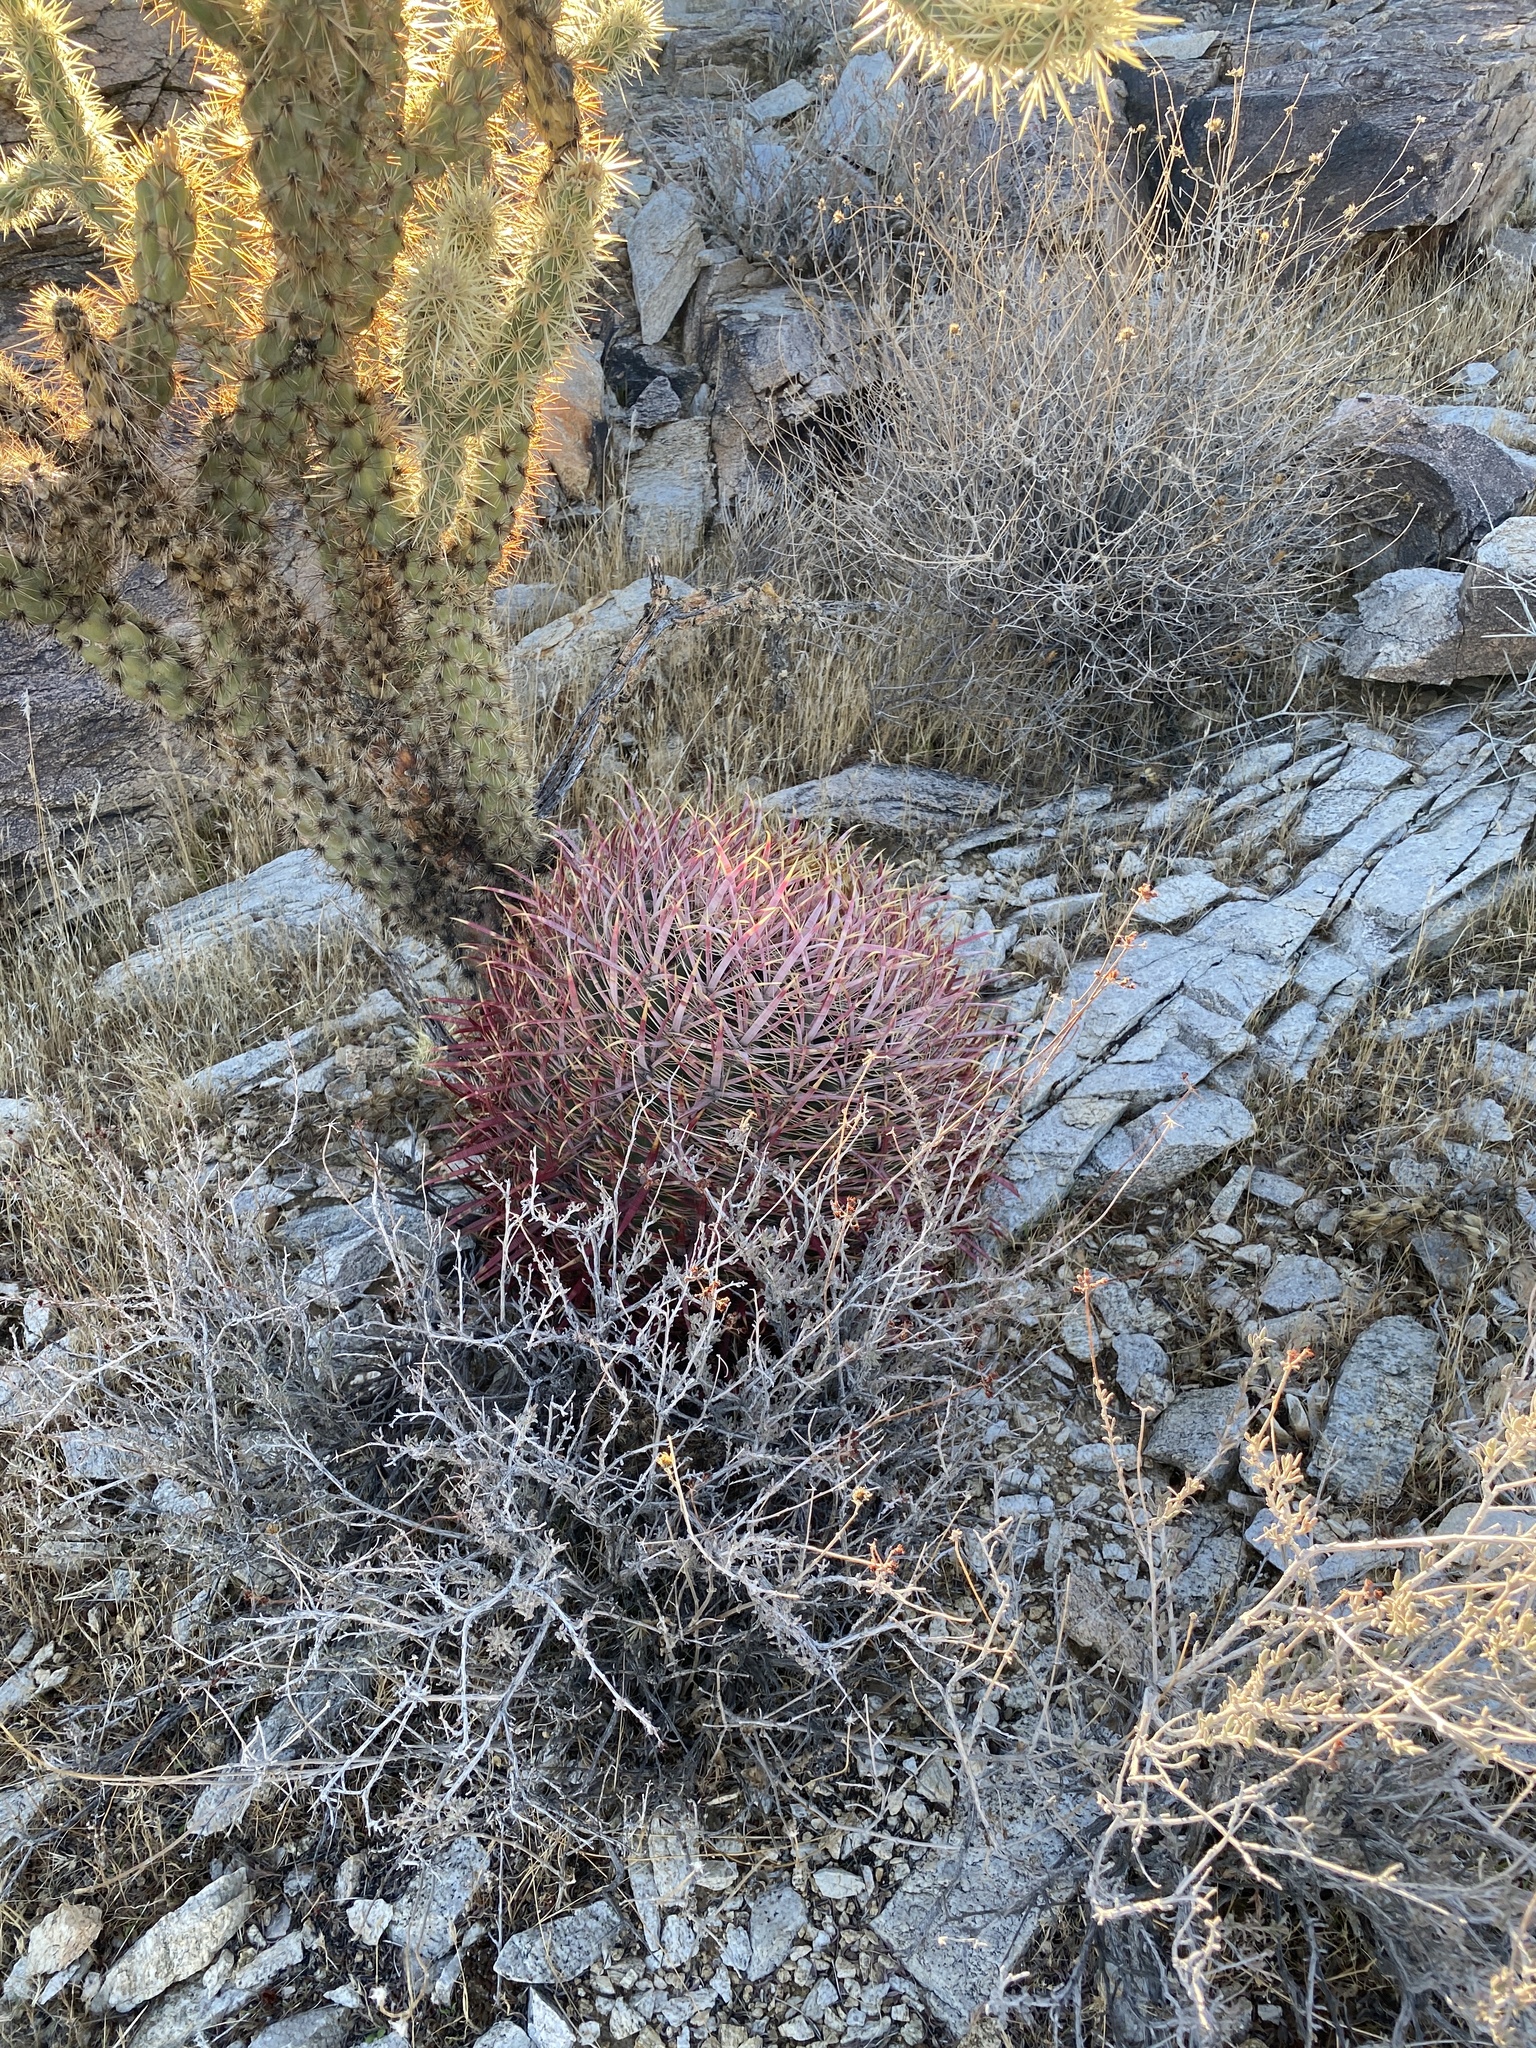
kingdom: Plantae
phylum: Tracheophyta
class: Magnoliopsida
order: Caryophyllales
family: Cactaceae
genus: Ferocactus
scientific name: Ferocactus cylindraceus
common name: California barrel cactus
